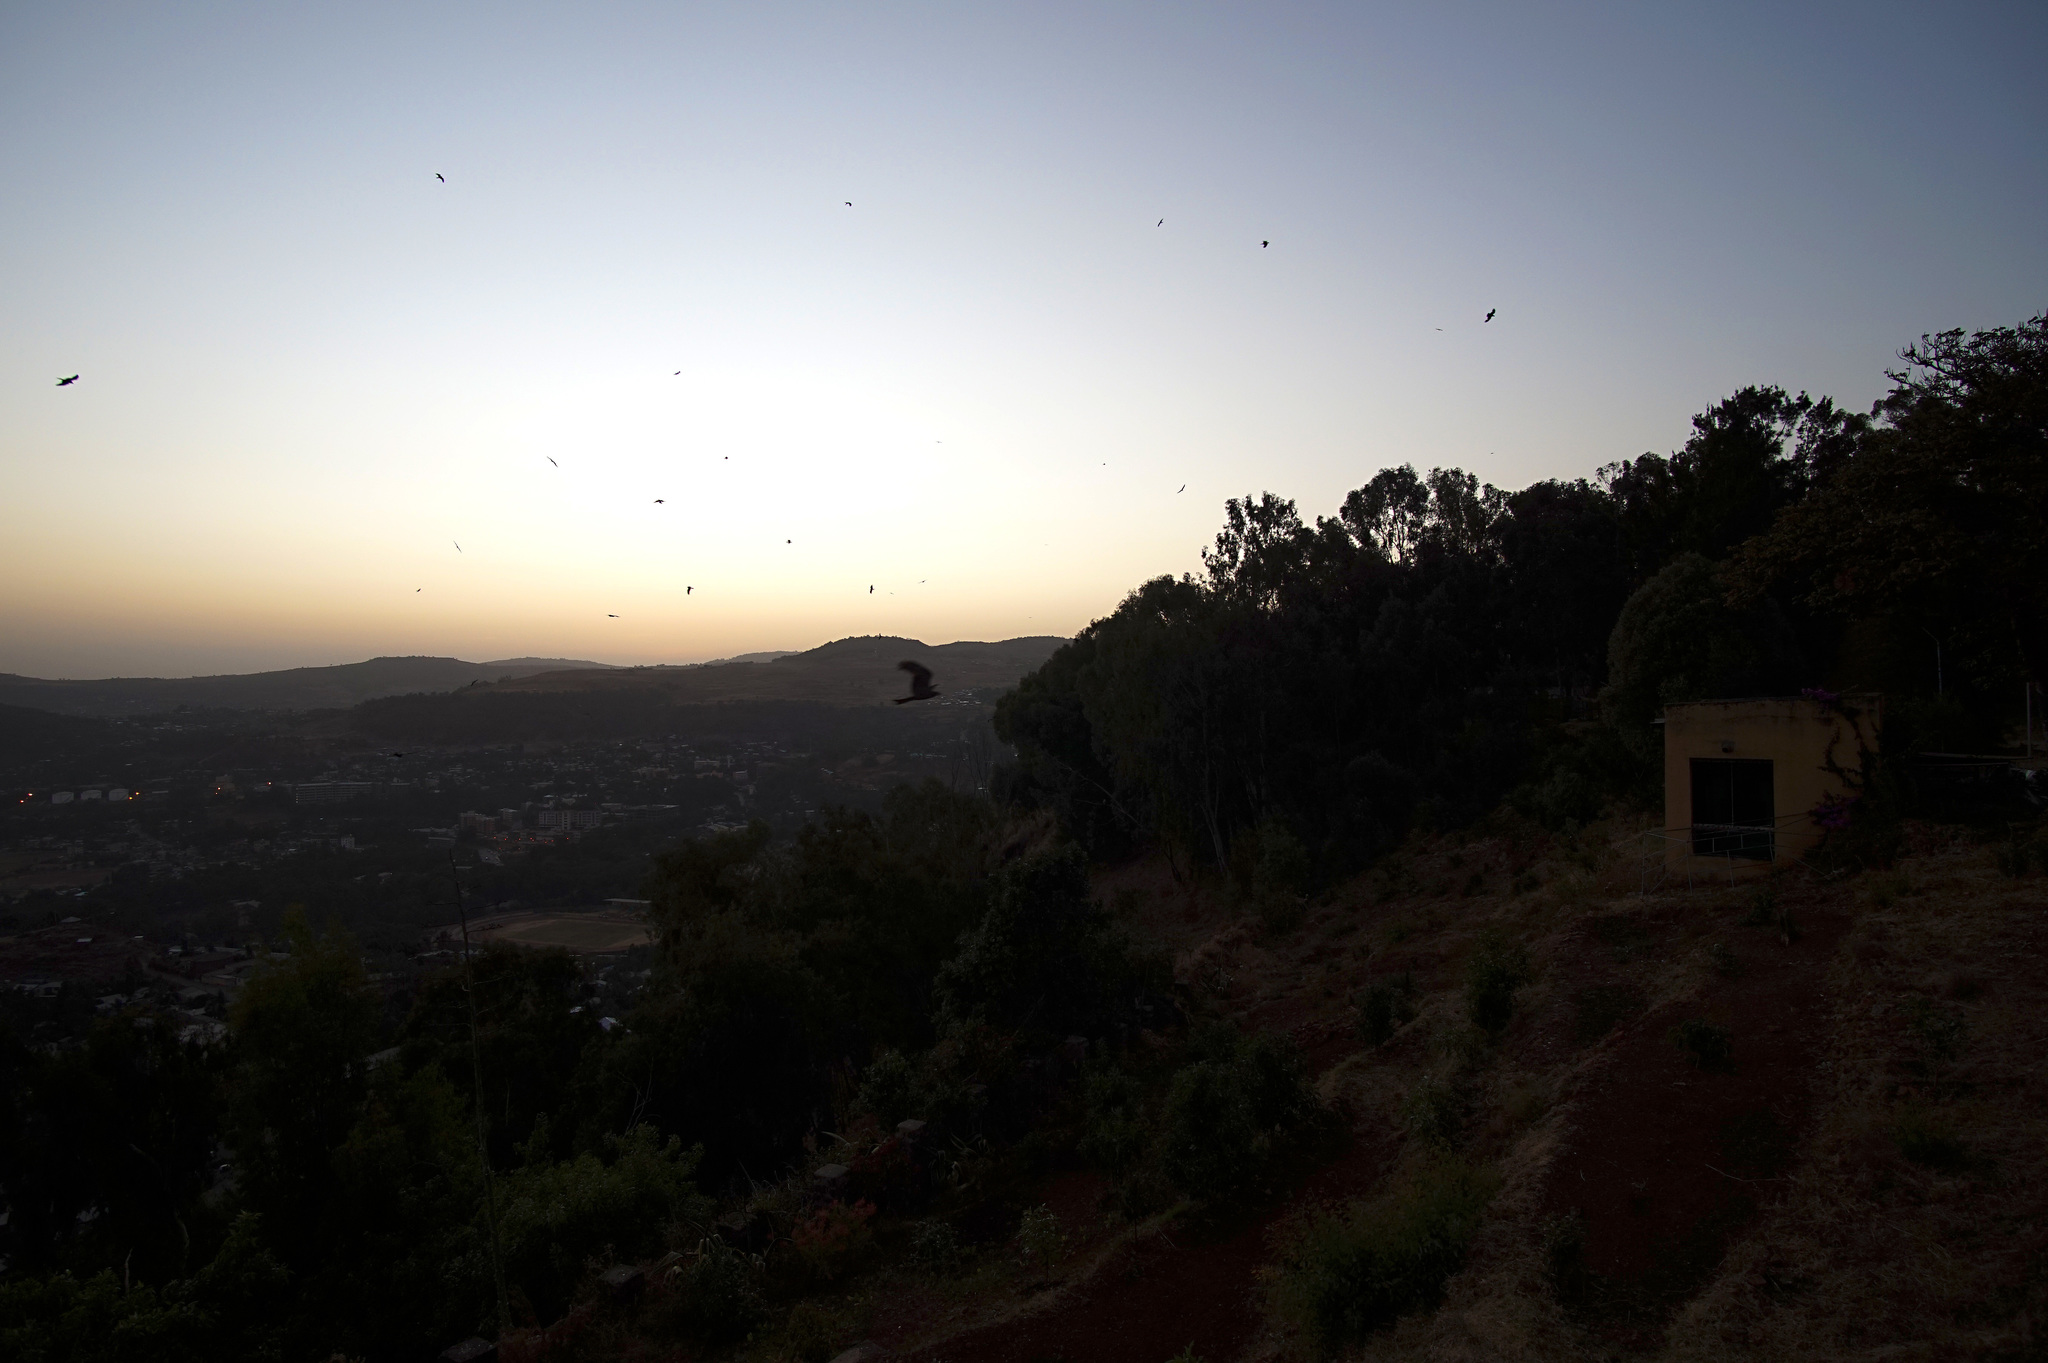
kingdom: Animalia
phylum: Chordata
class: Aves
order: Accipitriformes
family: Accipitridae
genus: Milvus
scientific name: Milvus migrans
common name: Black kite
